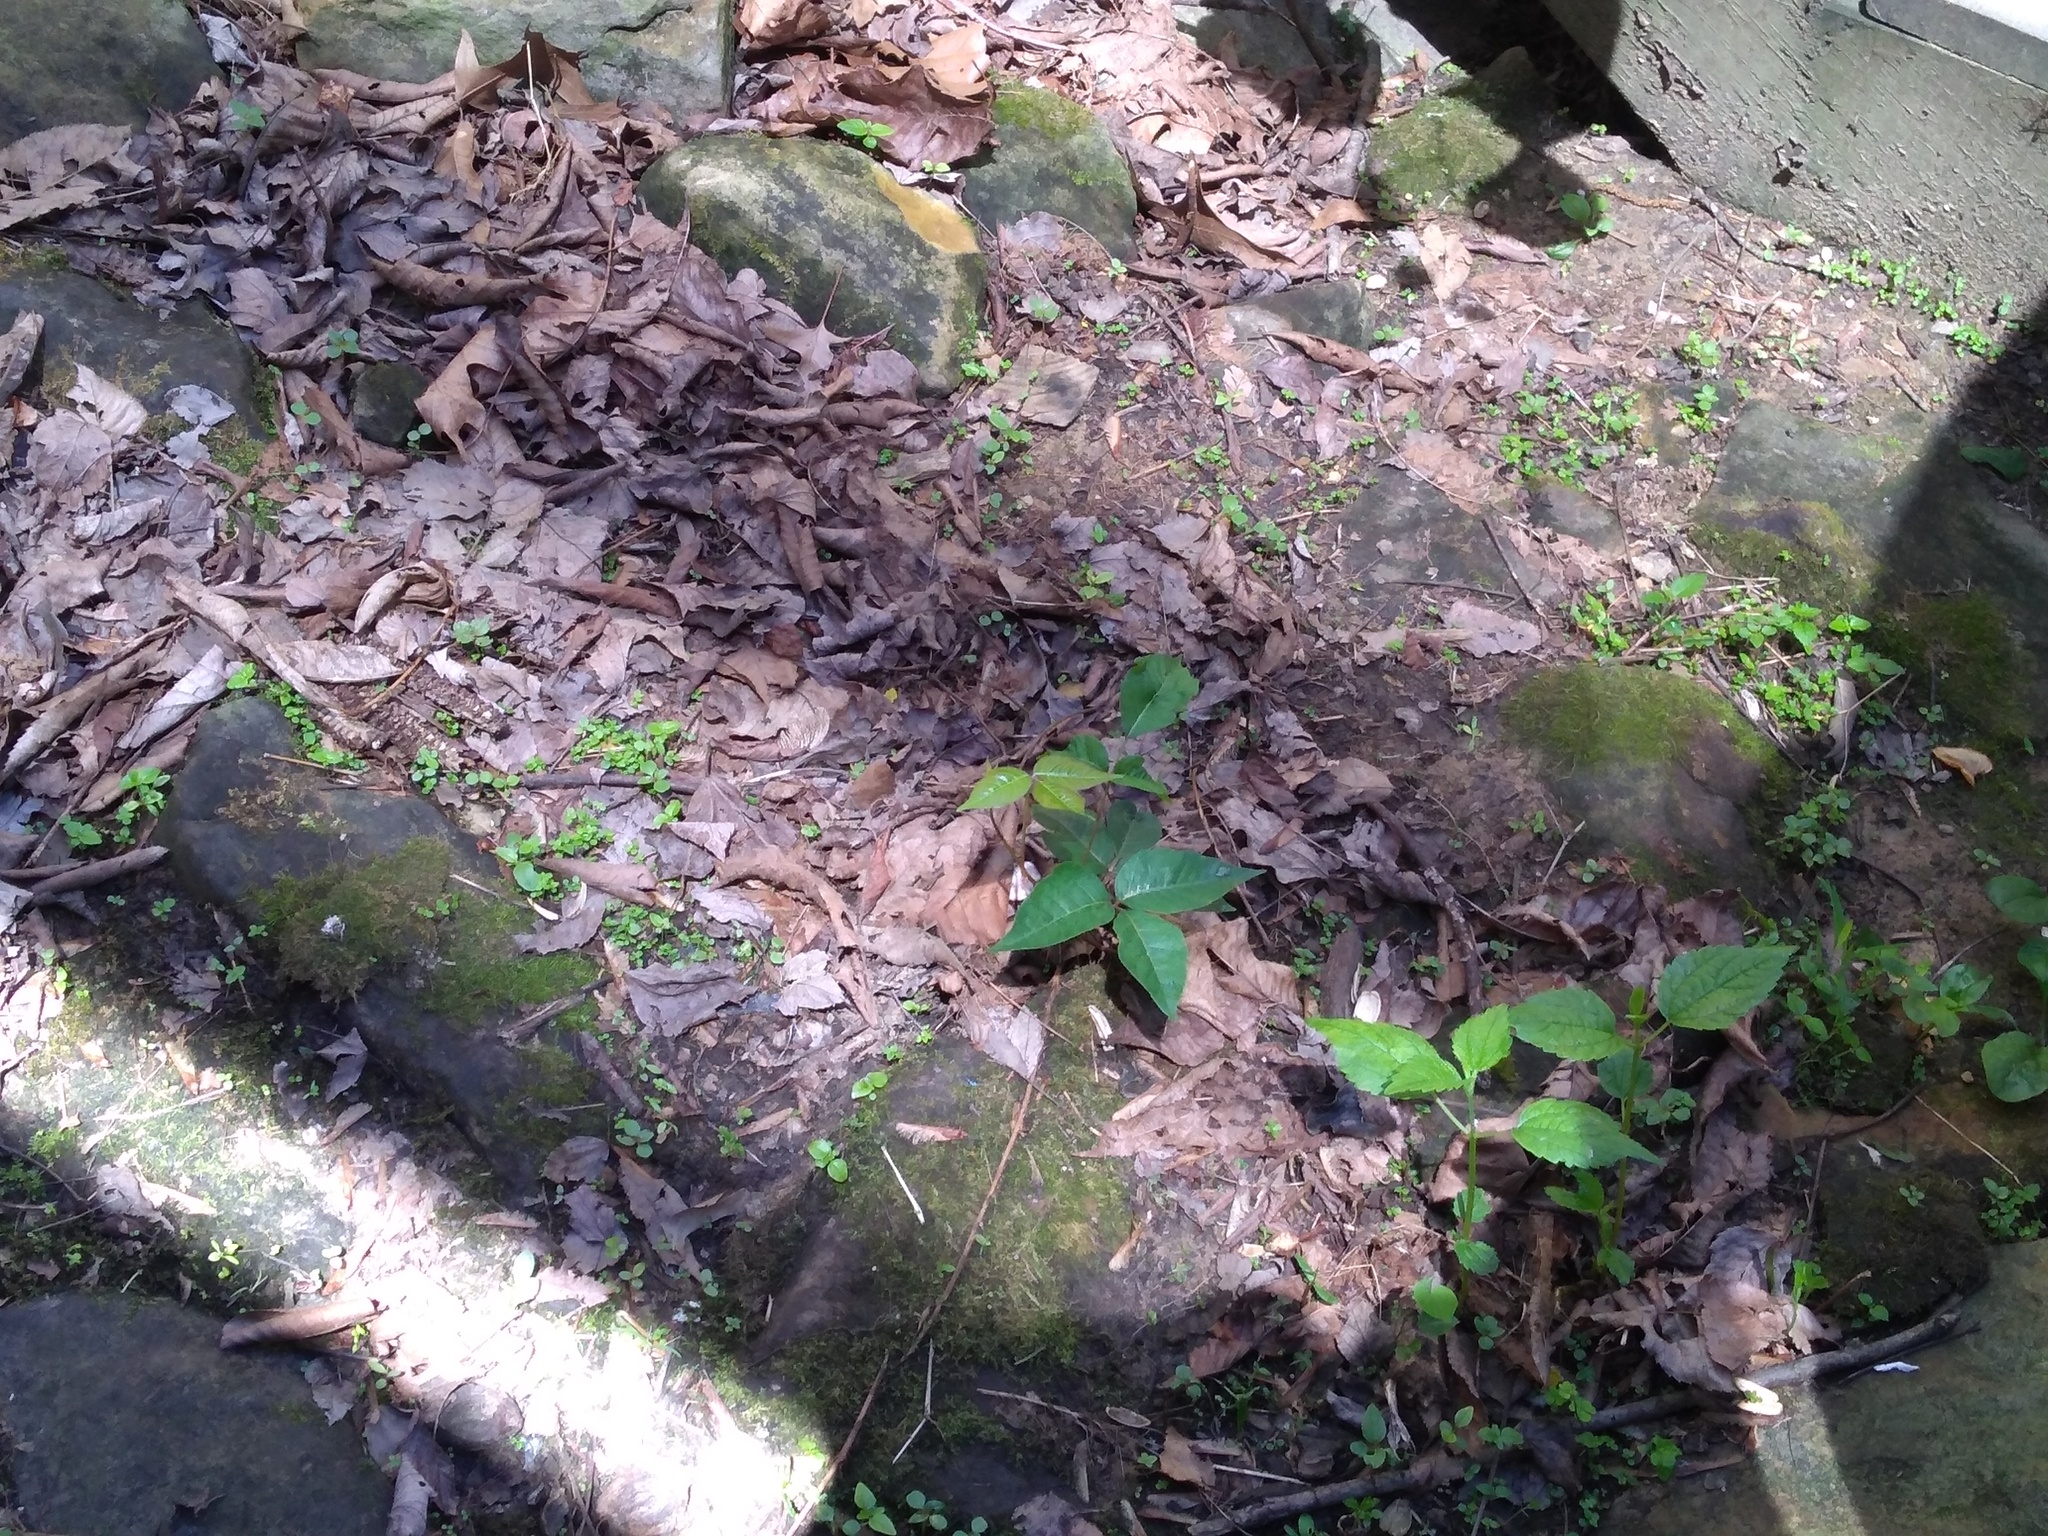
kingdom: Plantae
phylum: Tracheophyta
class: Magnoliopsida
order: Sapindales
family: Anacardiaceae
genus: Toxicodendron
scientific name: Toxicodendron radicans
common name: Poison ivy
